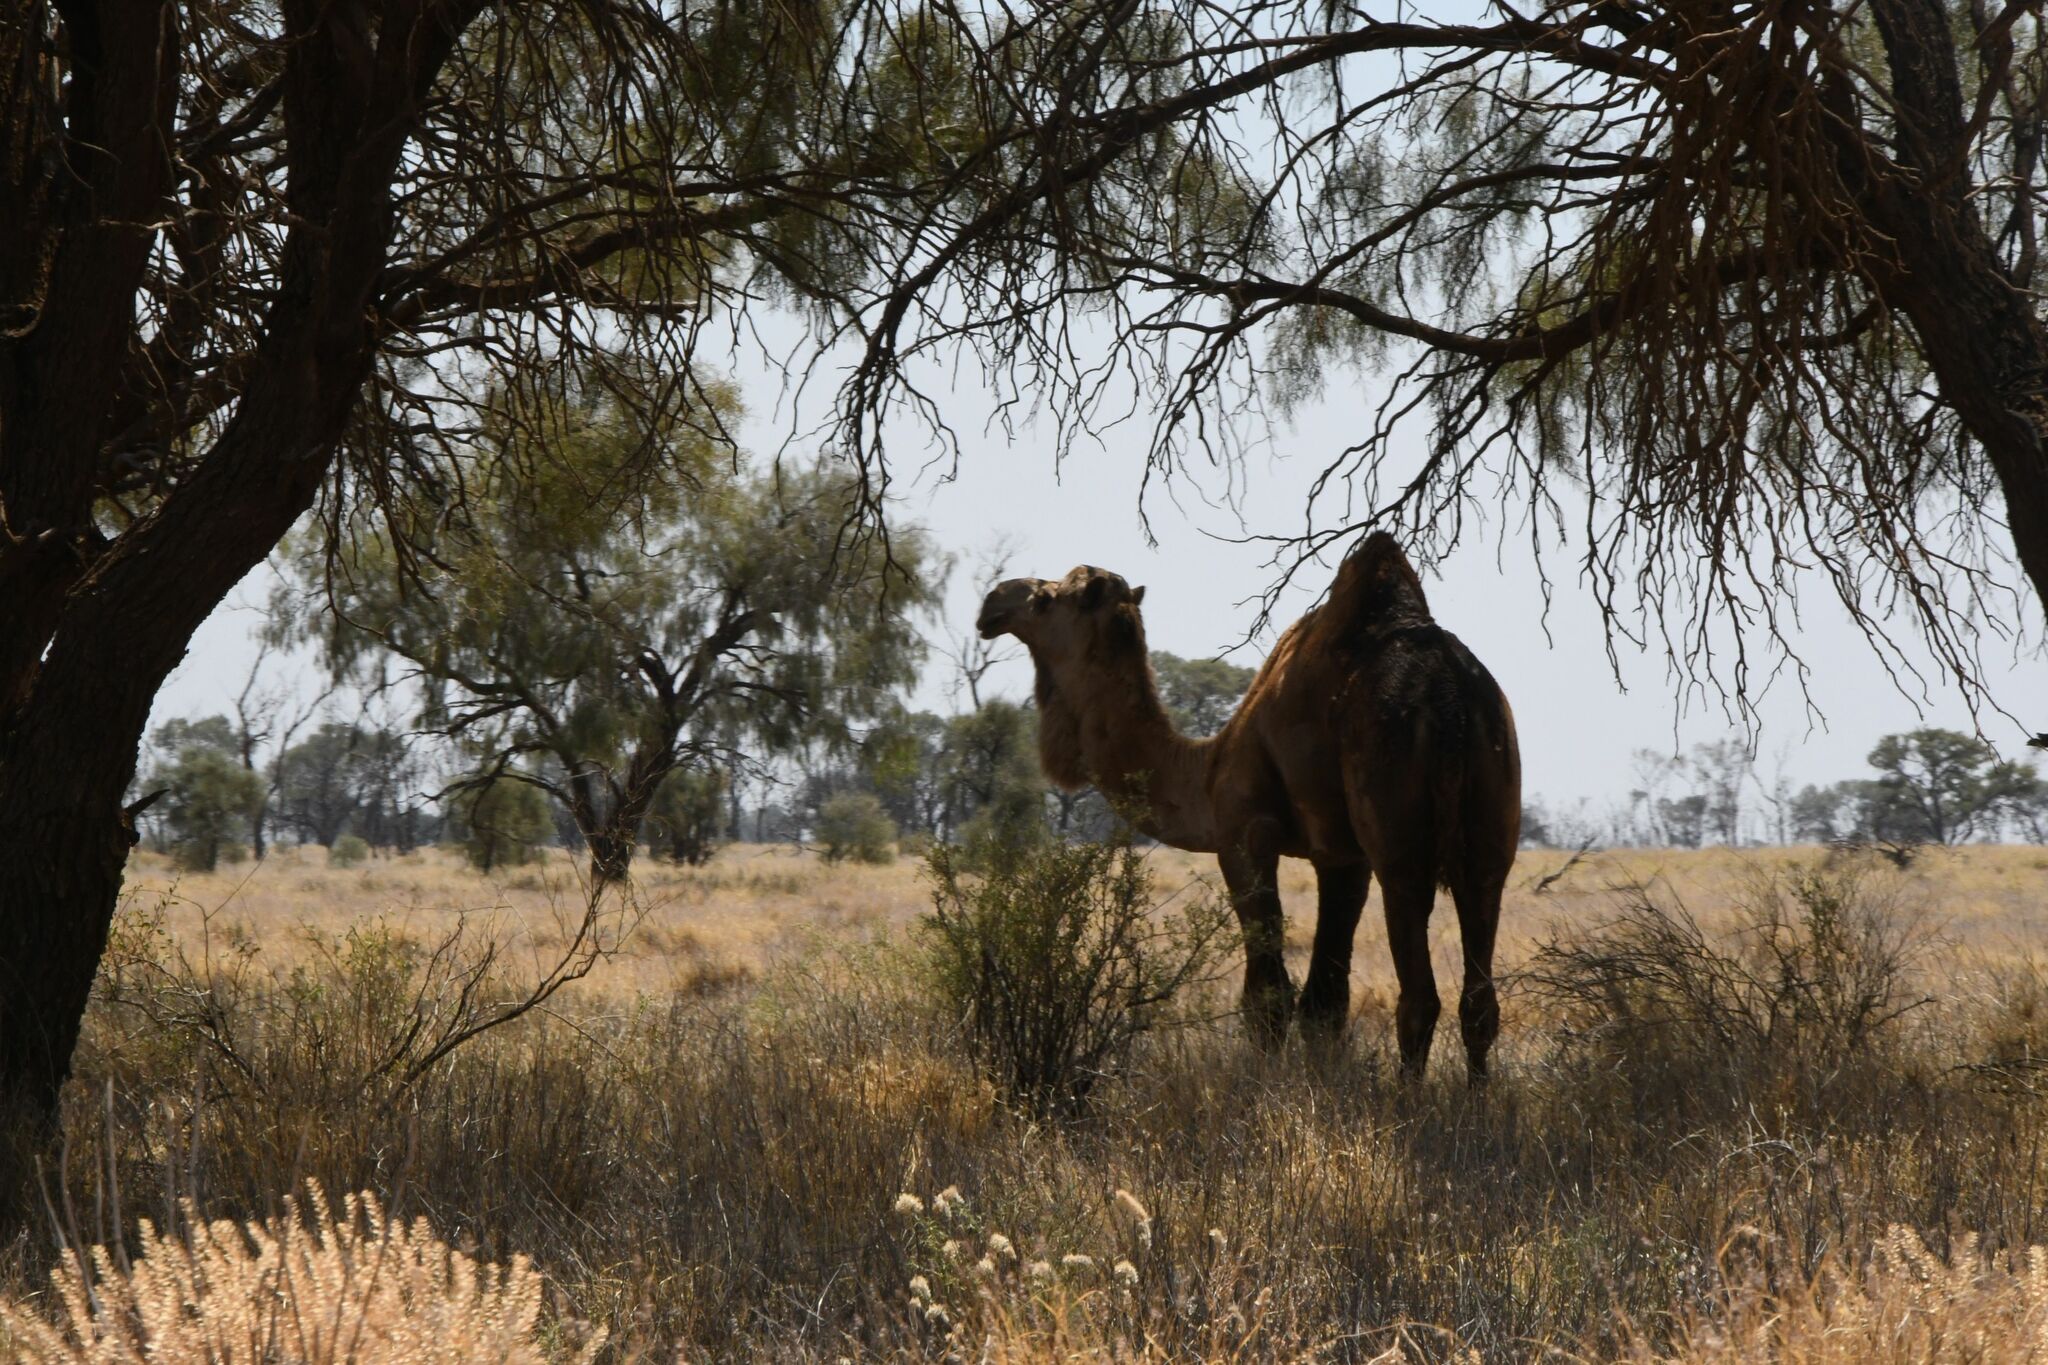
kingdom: Animalia
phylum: Chordata
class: Mammalia
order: Artiodactyla
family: Camelidae
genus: Camelus
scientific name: Camelus dromedarius
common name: One-humped camel
